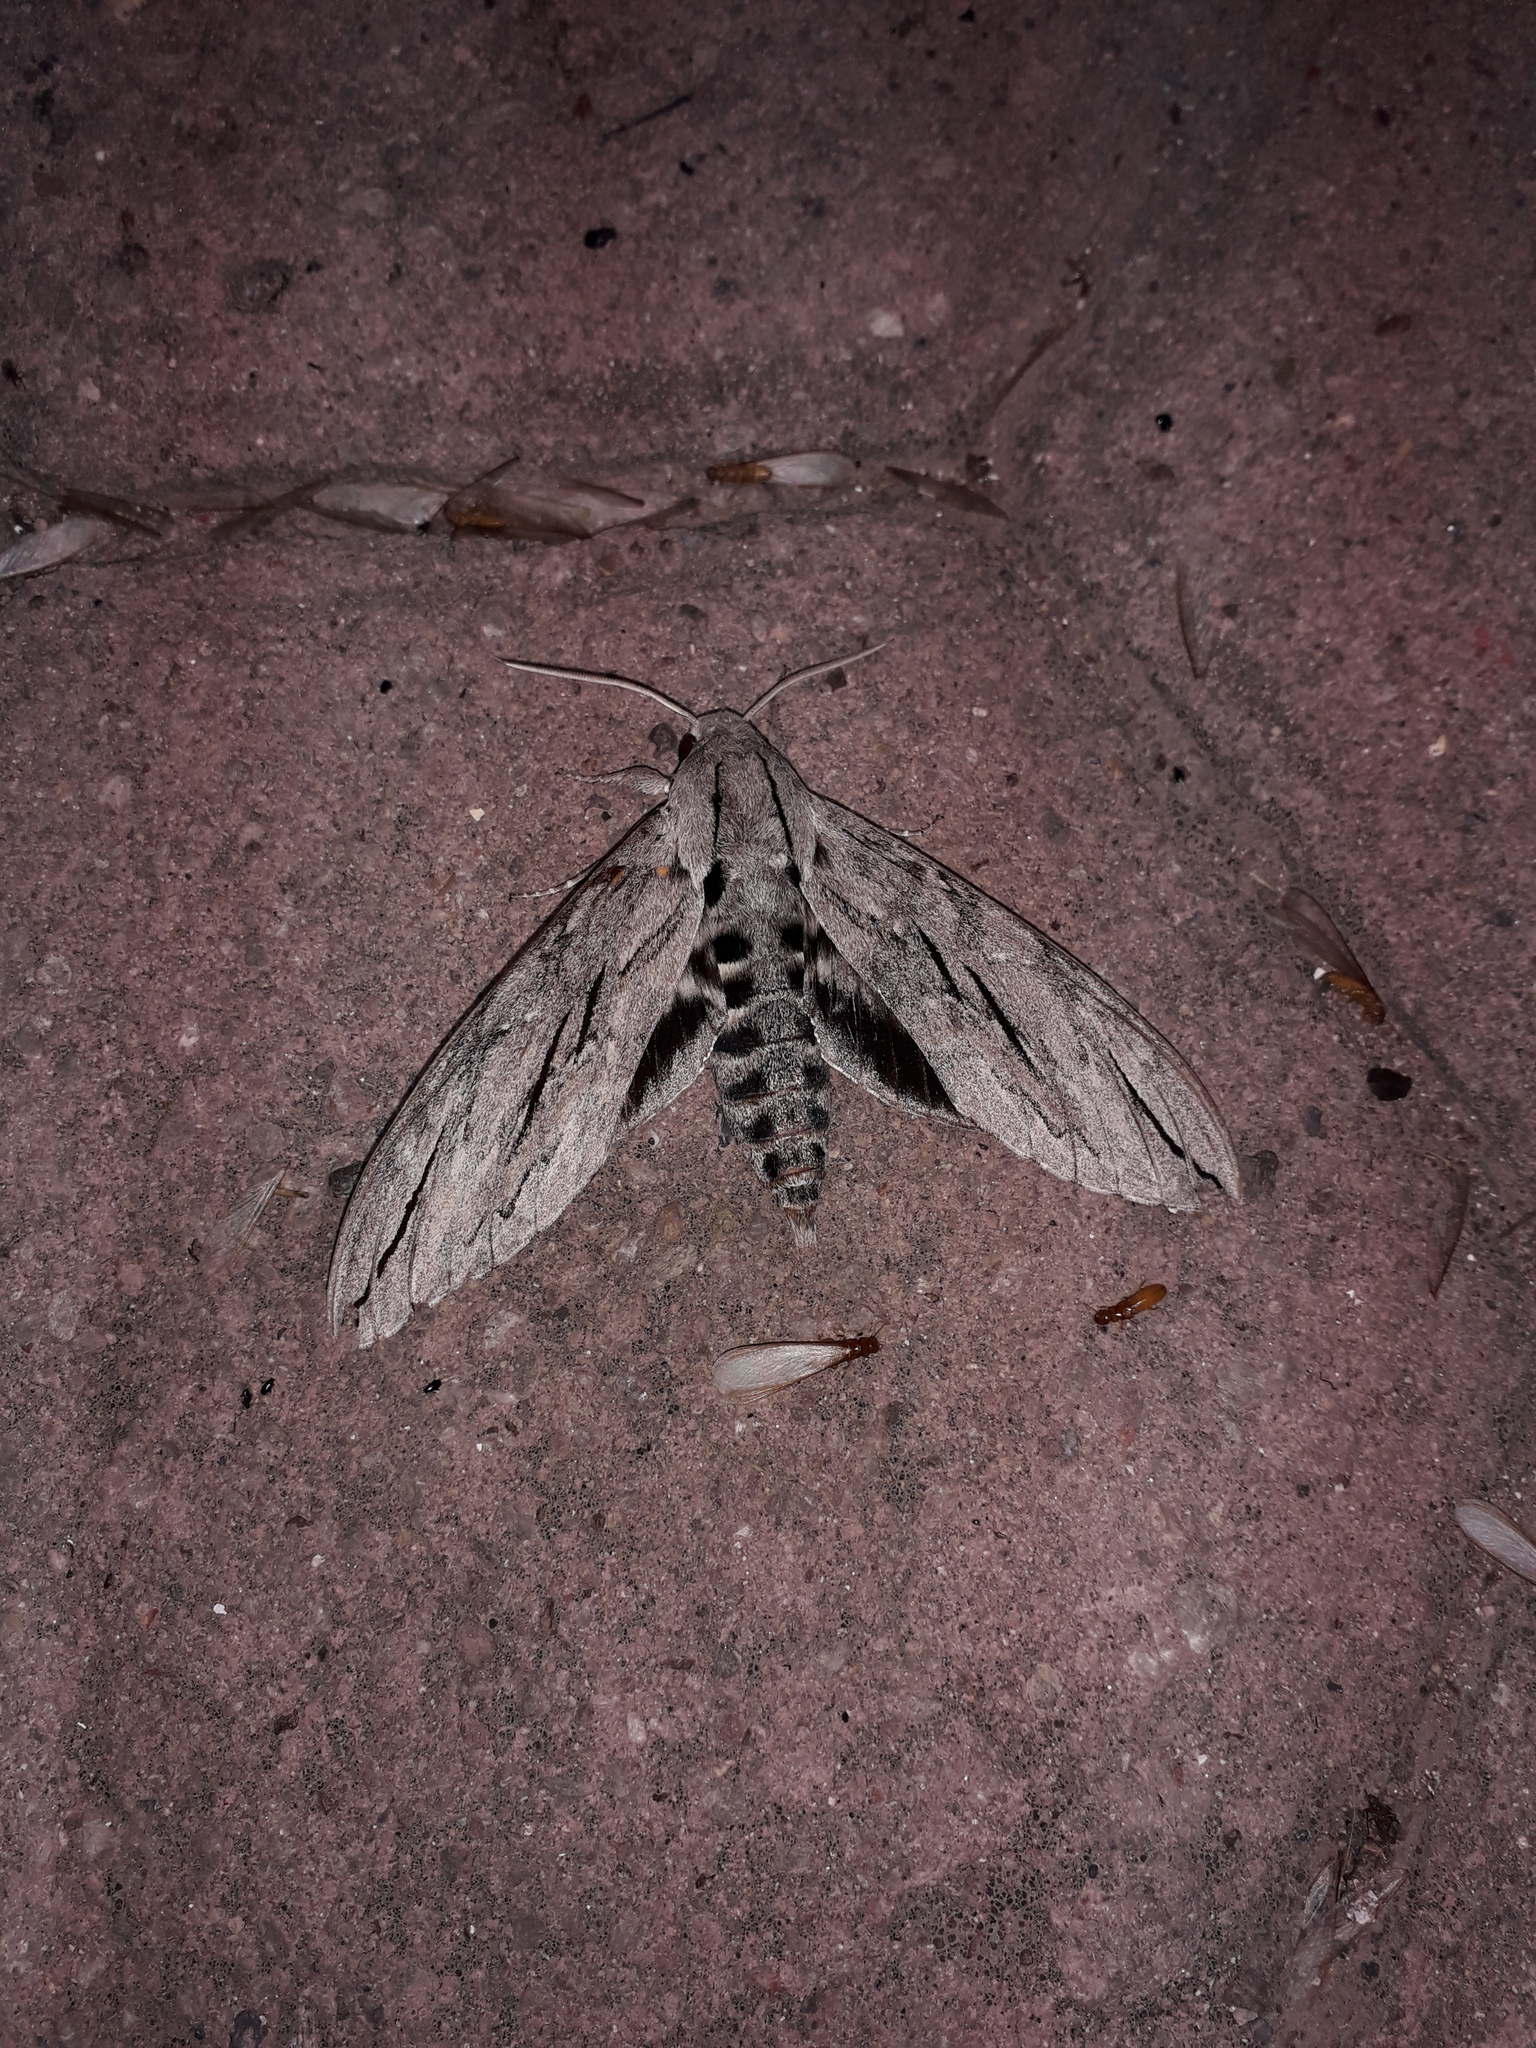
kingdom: Animalia
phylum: Arthropoda
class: Insecta
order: Lepidoptera
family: Sphingidae
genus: Sphinx
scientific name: Sphinx leucophaeata
